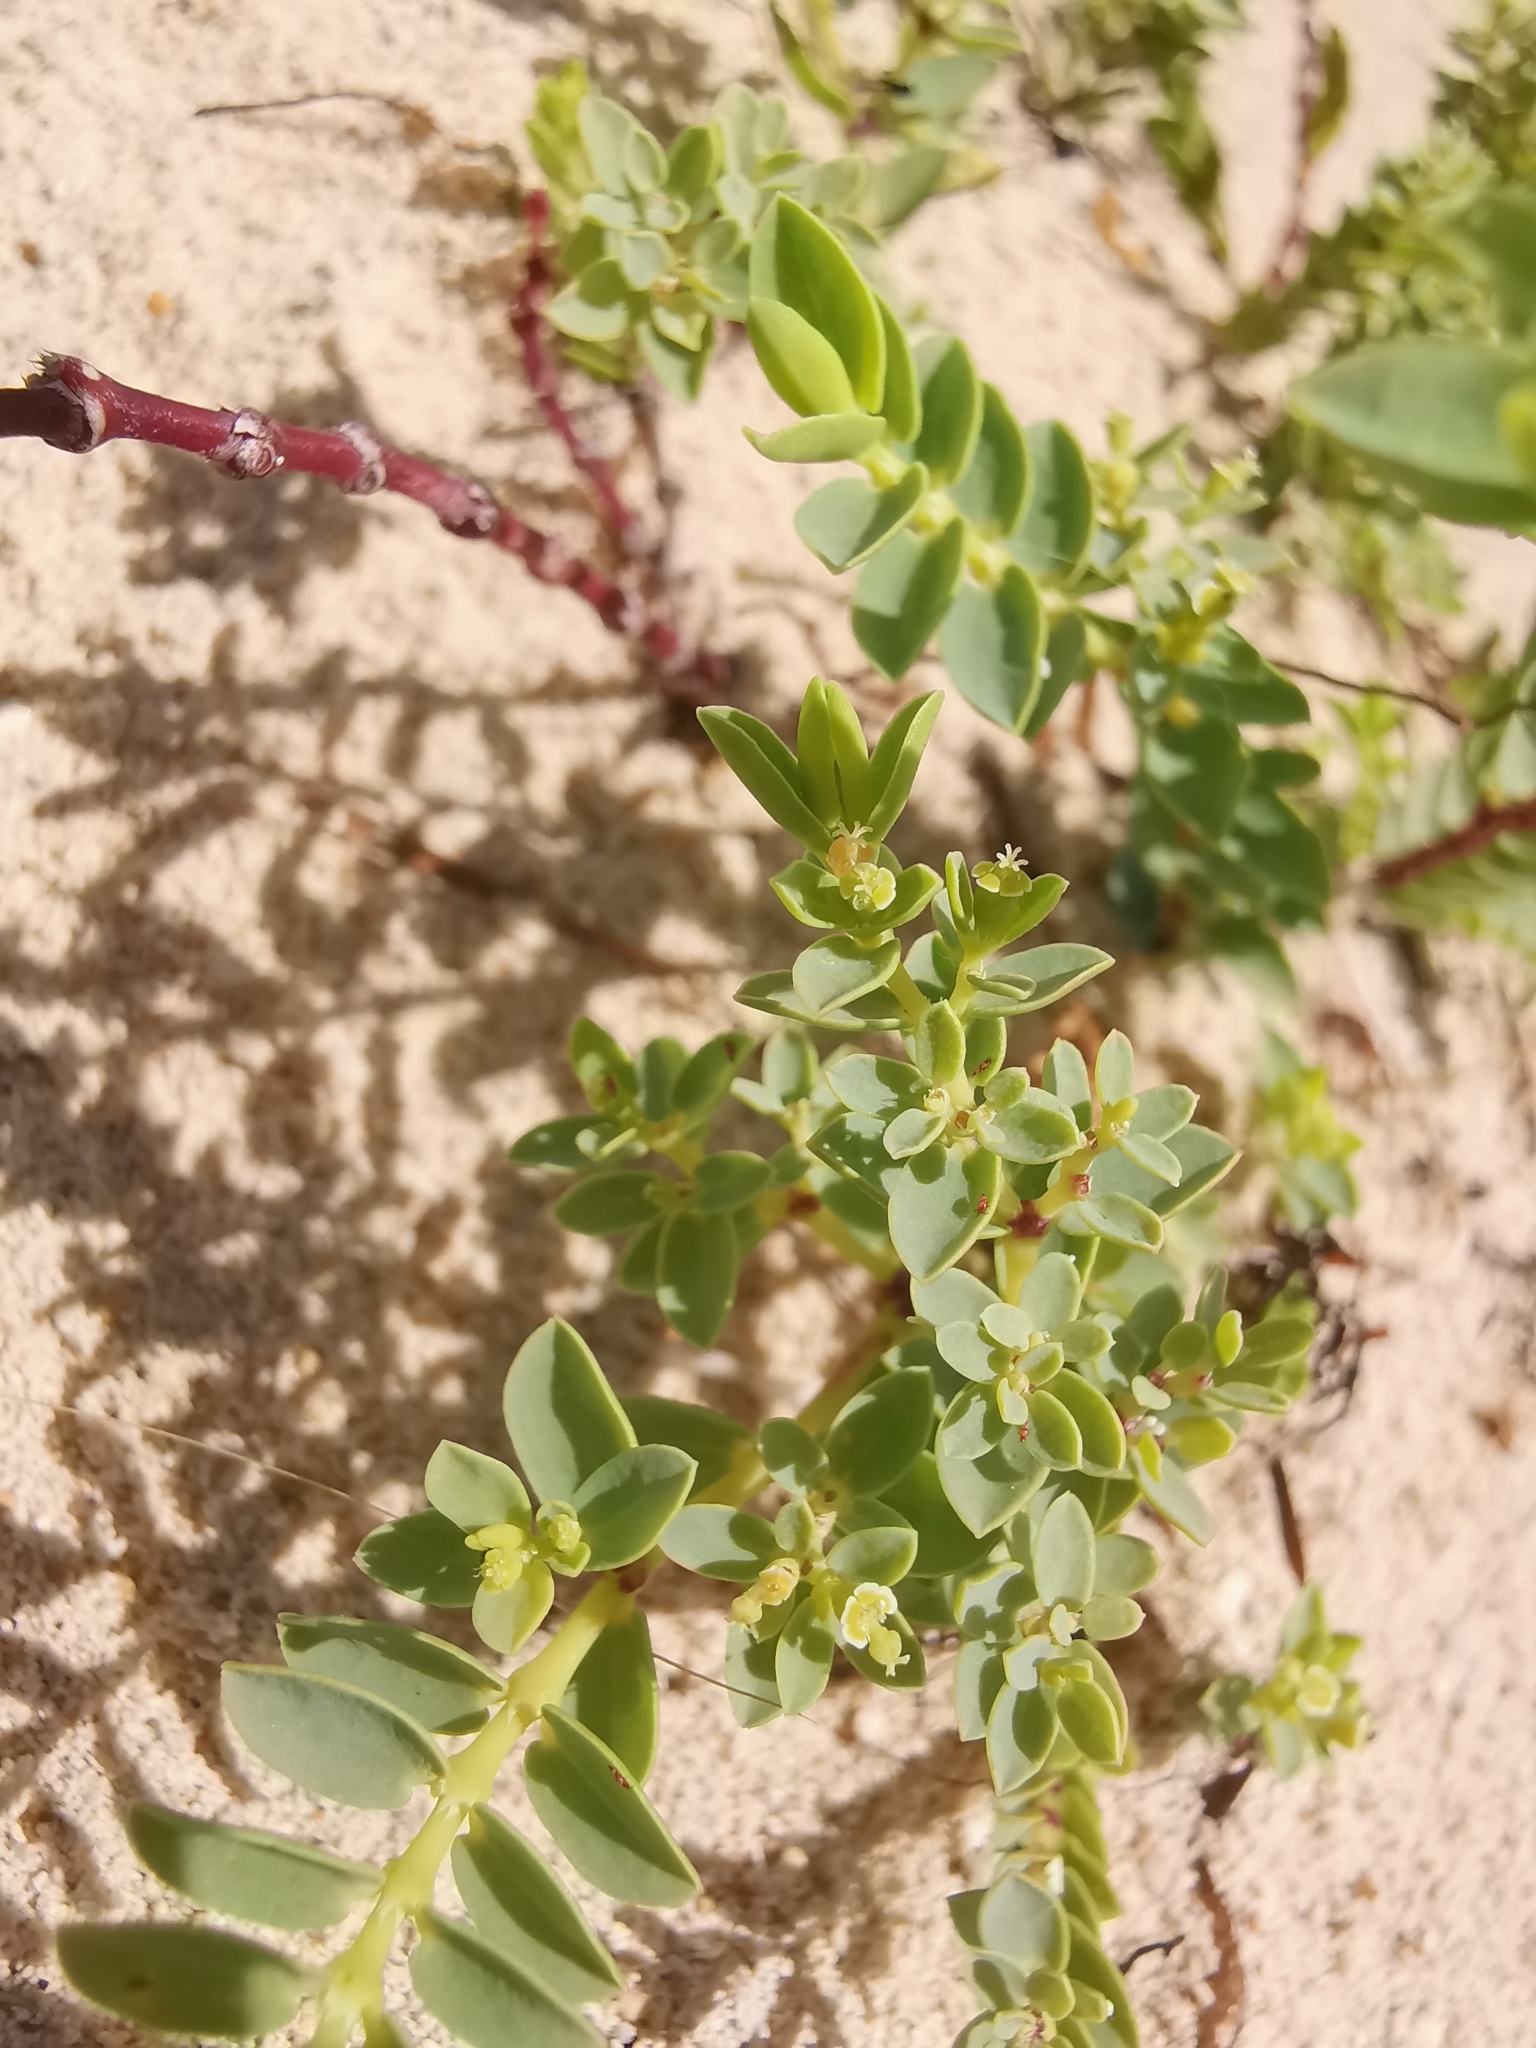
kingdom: Plantae
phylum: Tracheophyta
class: Magnoliopsida
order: Malpighiales
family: Euphorbiaceae
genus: Euphorbia
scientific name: Euphorbia mesembryanthemifolia
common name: Coastal beach sandmat
